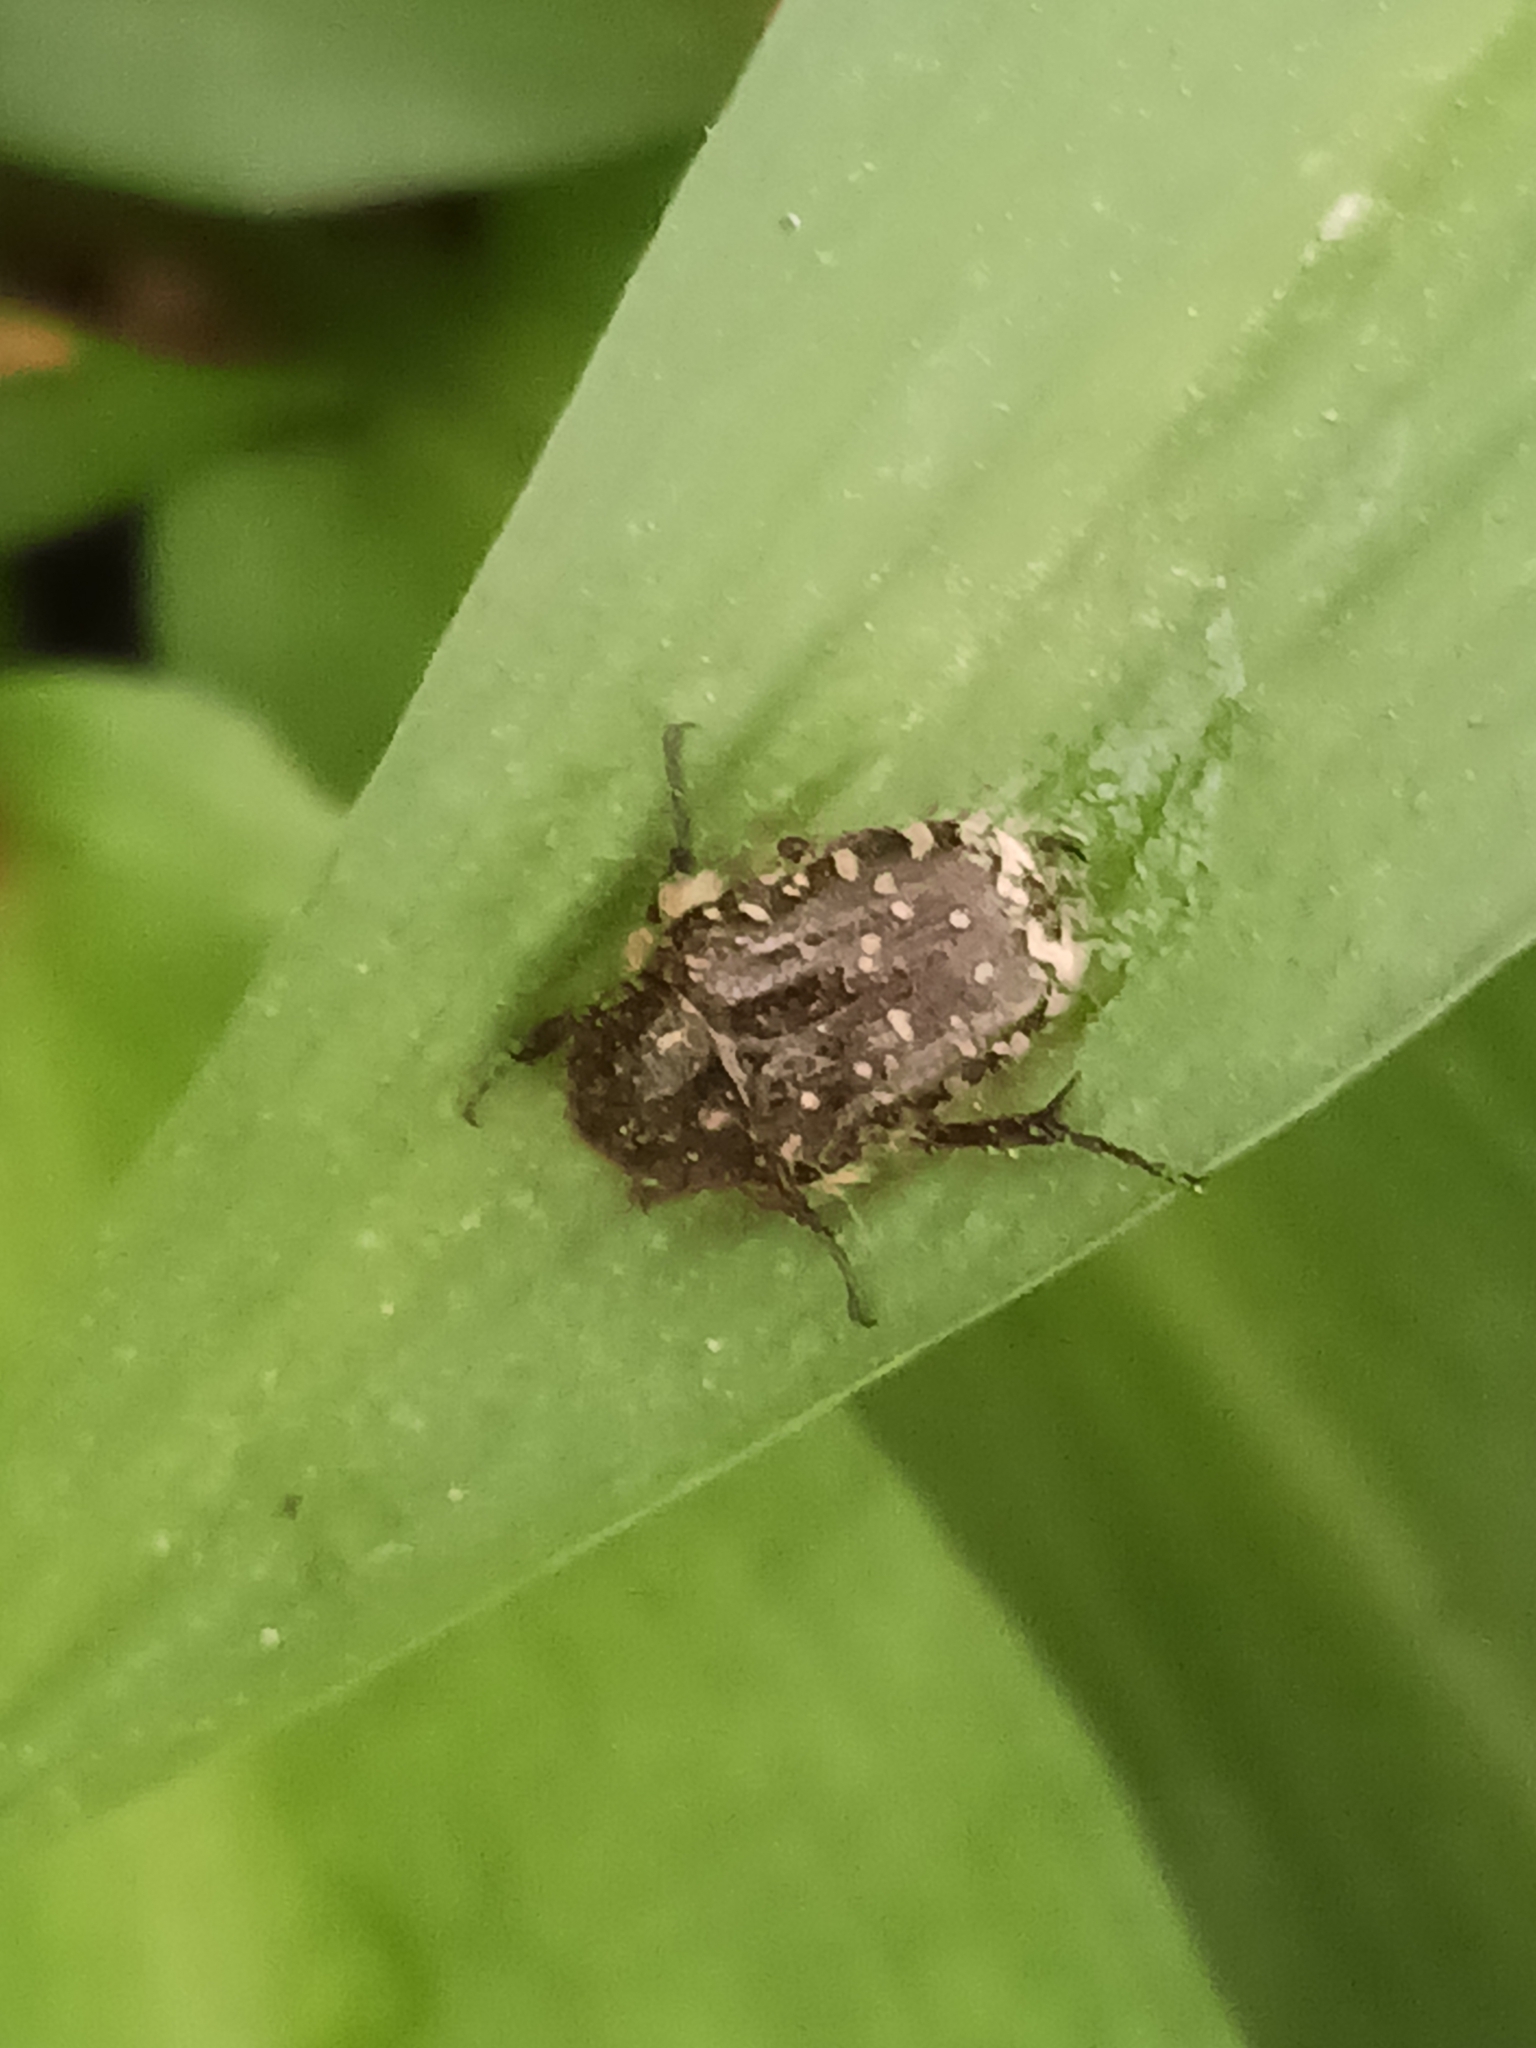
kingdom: Animalia
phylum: Arthropoda
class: Insecta
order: Coleoptera
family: Scarabaeidae
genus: Oxythyrea
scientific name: Oxythyrea funesta
